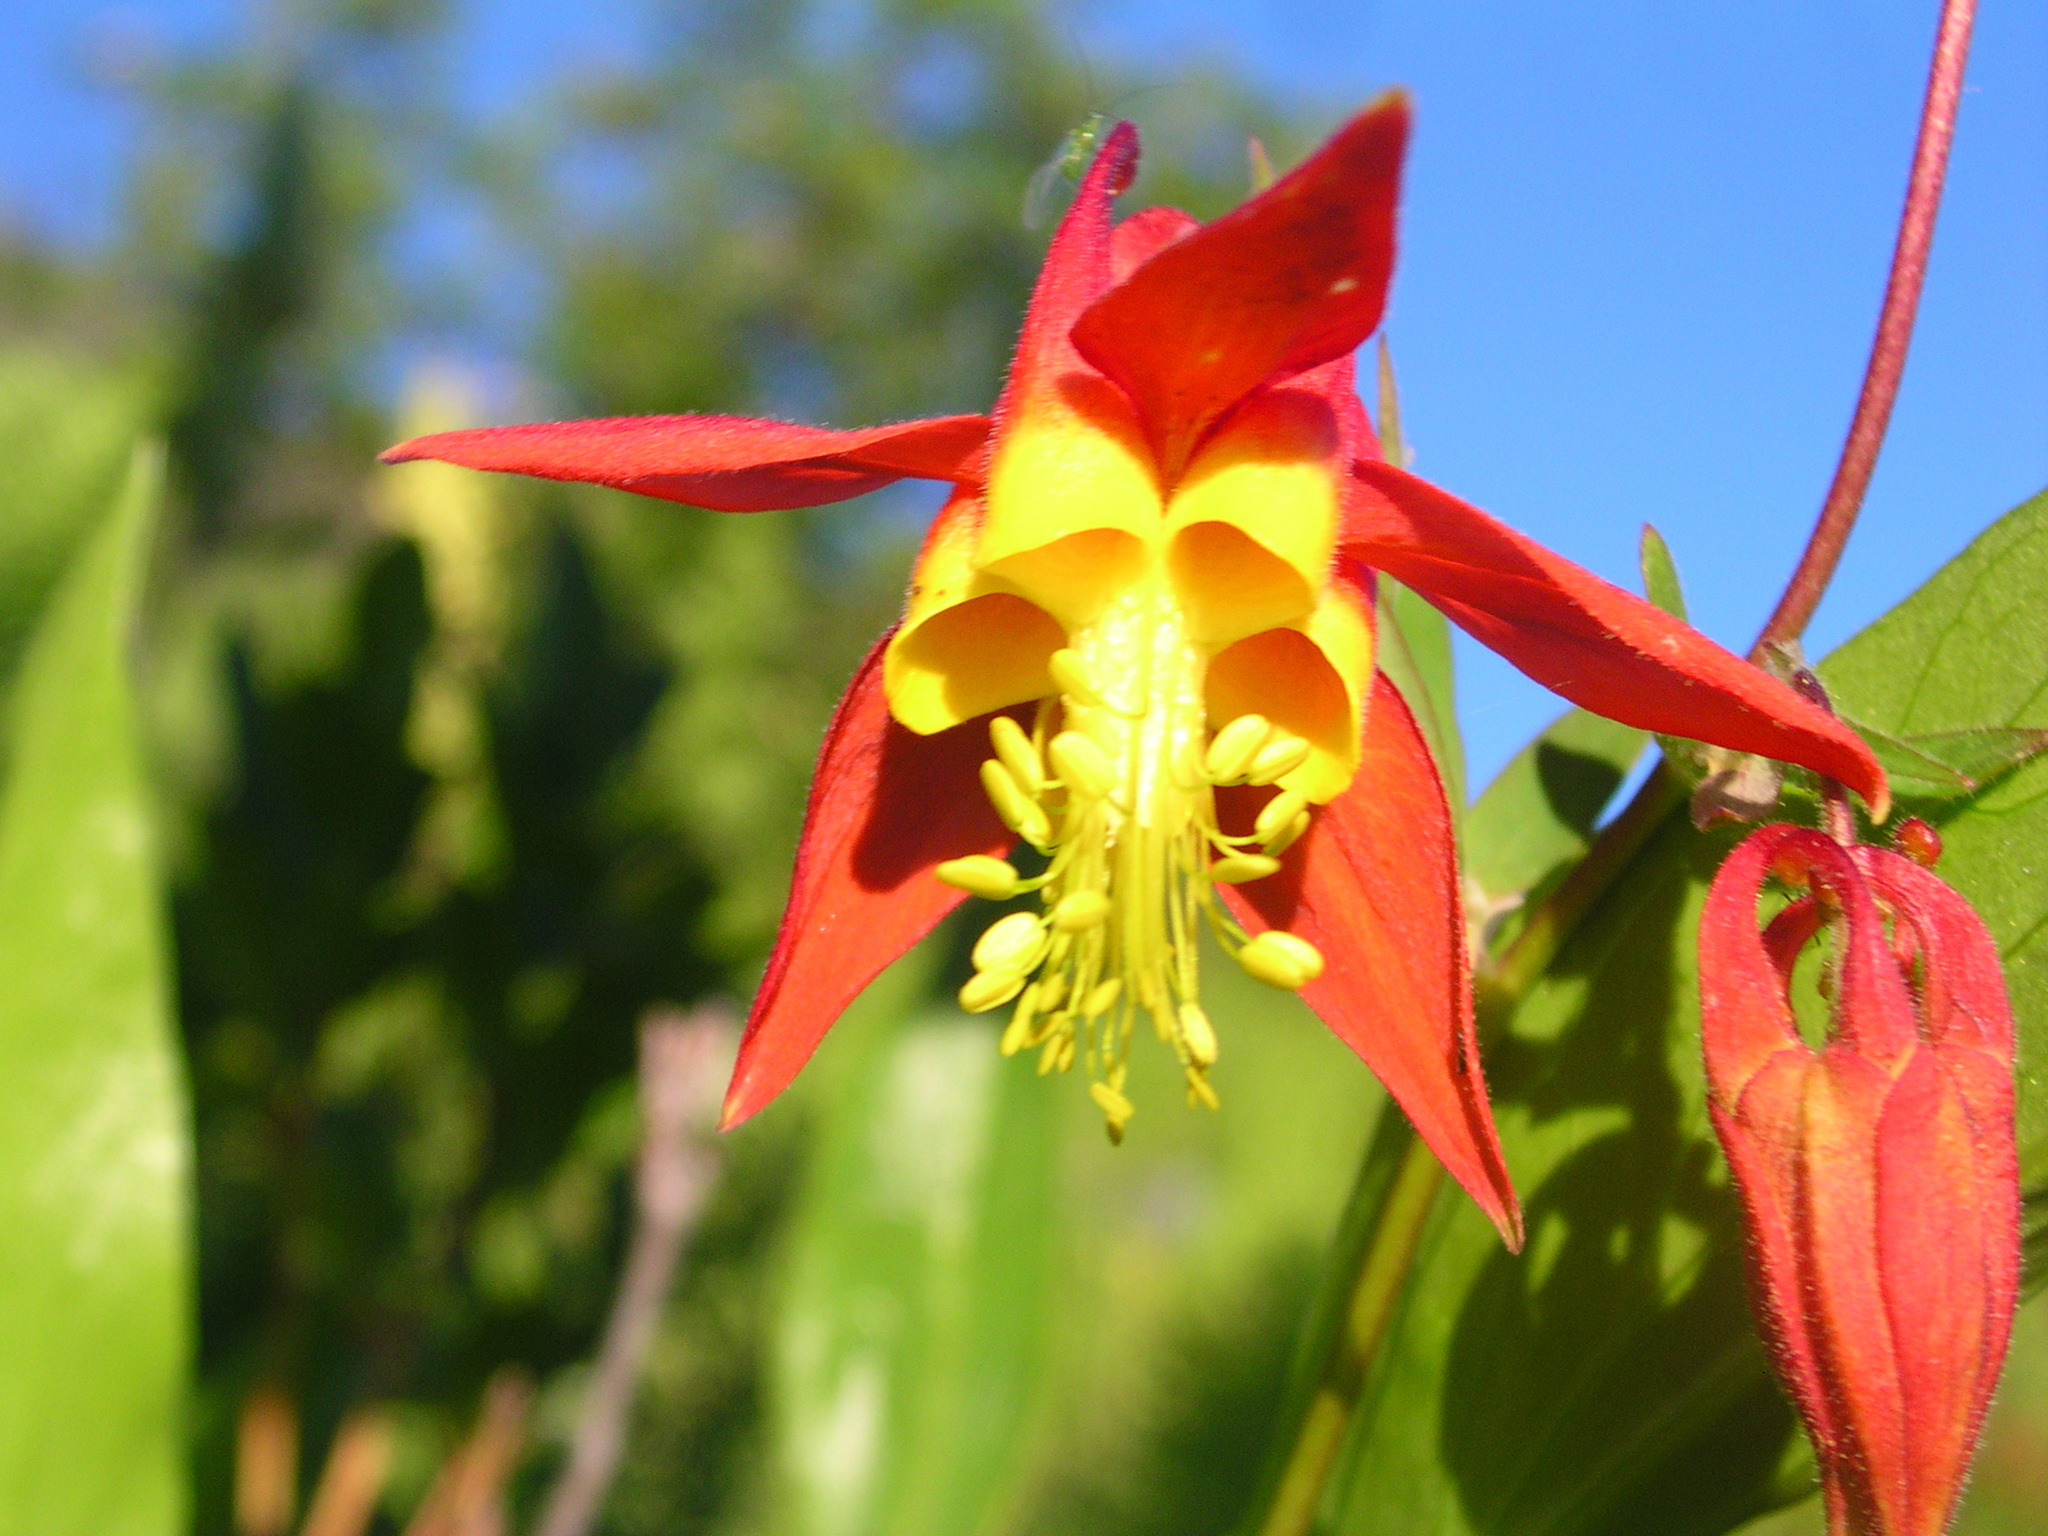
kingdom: Plantae
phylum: Tracheophyta
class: Magnoliopsida
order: Ranunculales
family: Ranunculaceae
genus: Aquilegia
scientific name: Aquilegia formosa
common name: Sitka columbine
